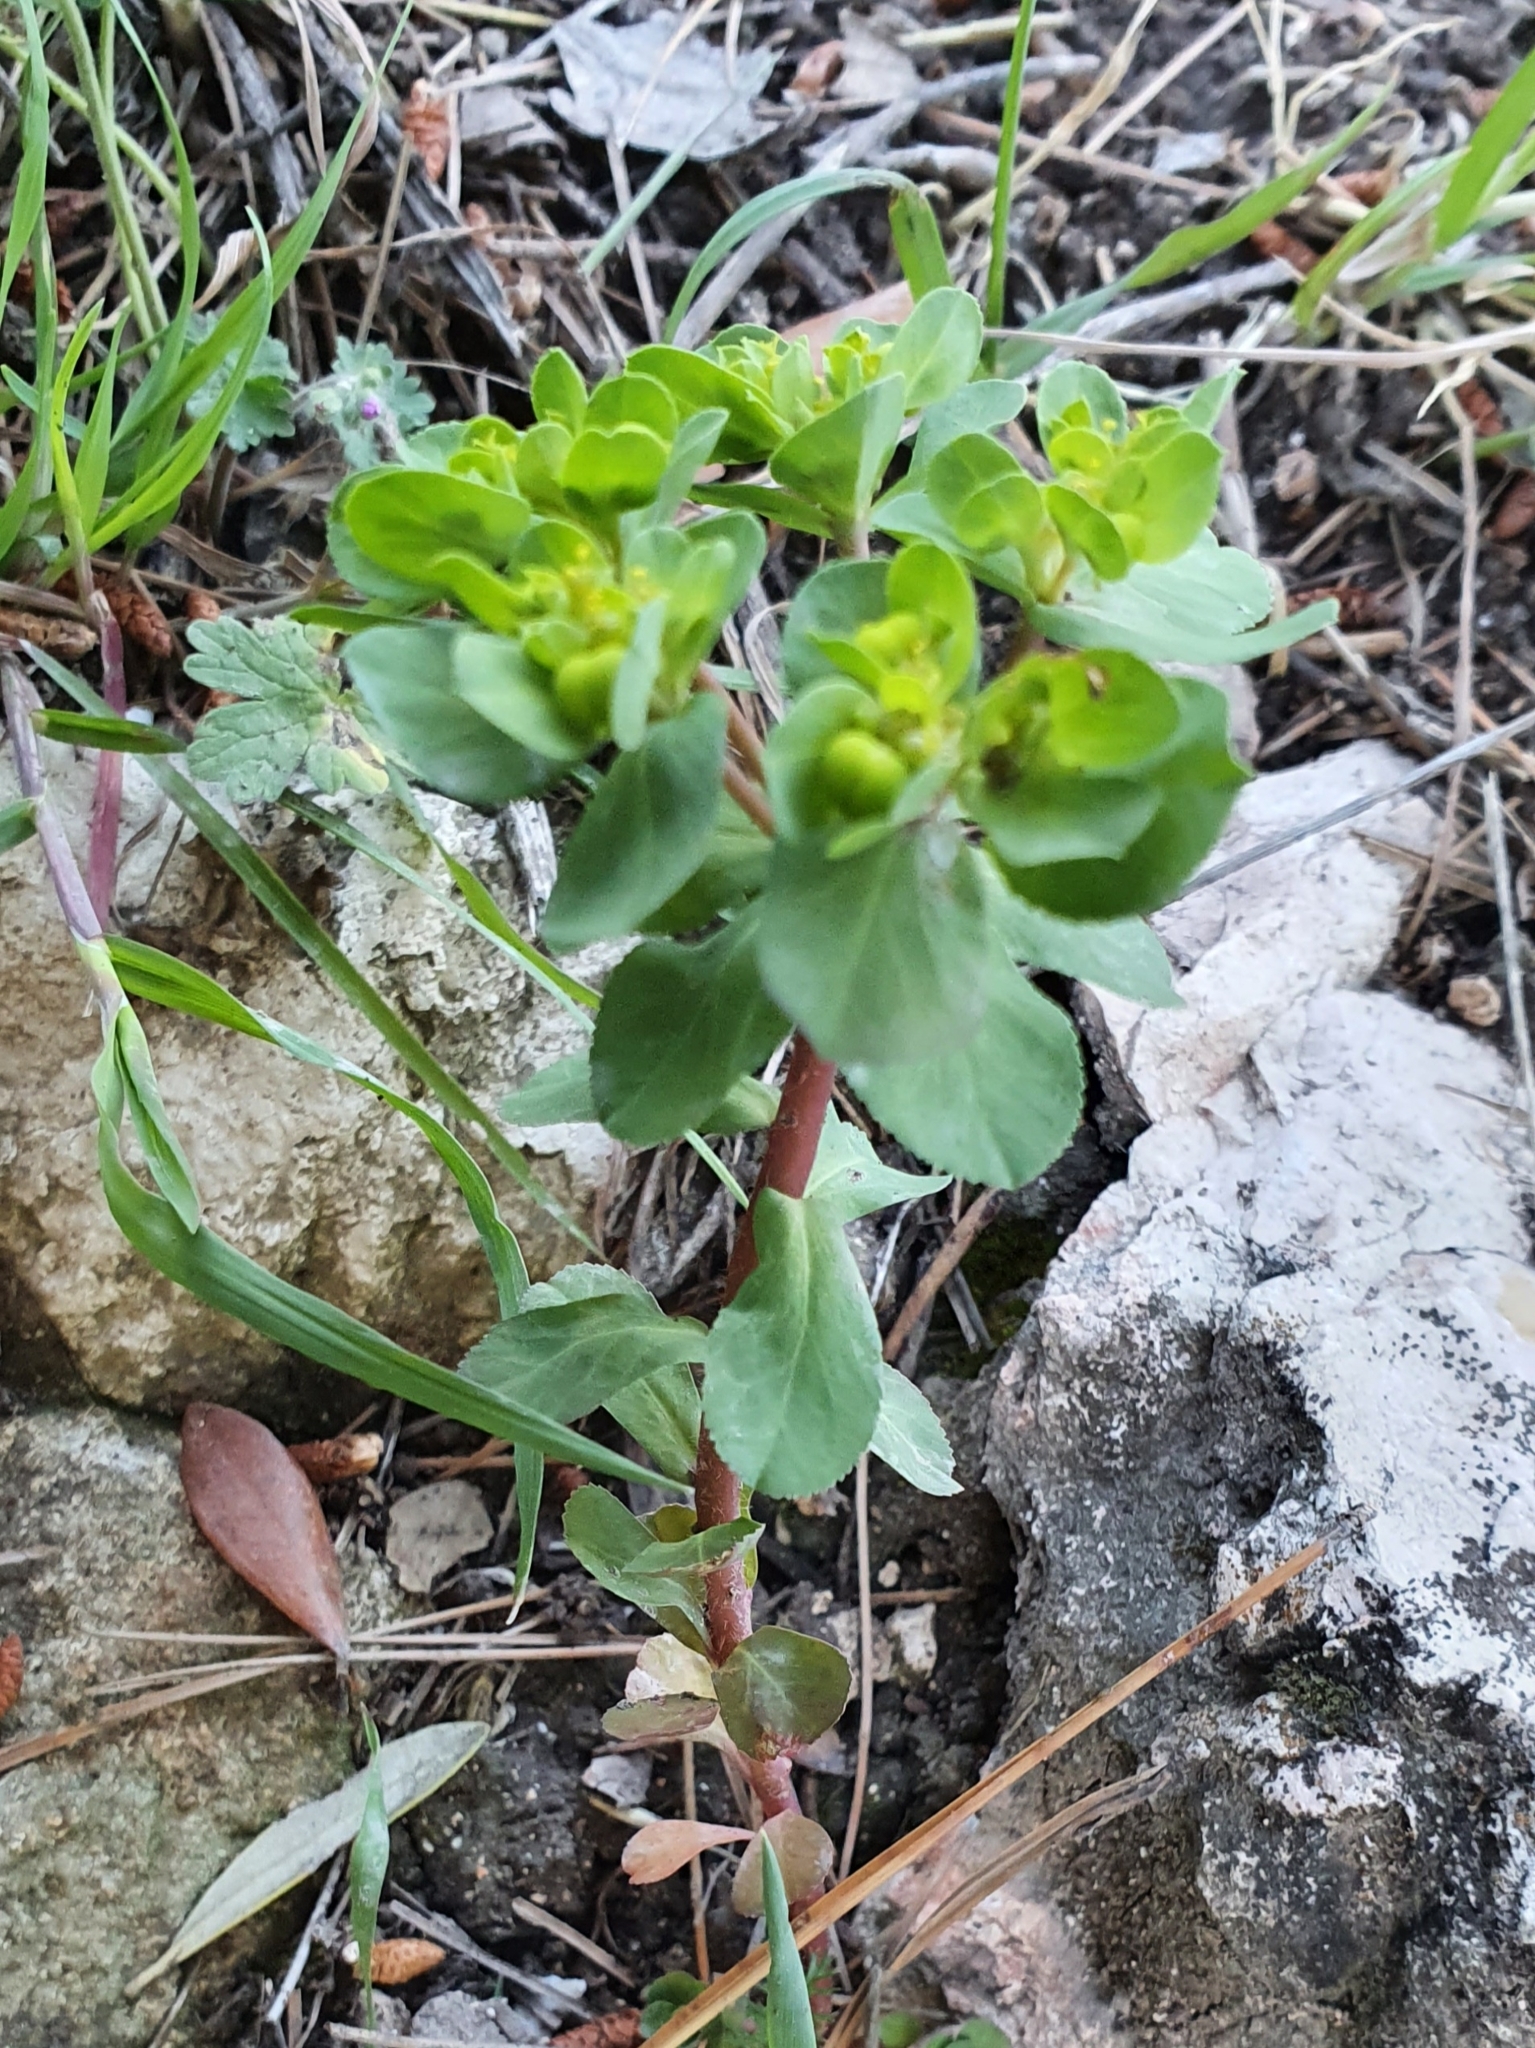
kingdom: Plantae
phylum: Tracheophyta
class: Magnoliopsida
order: Malpighiales
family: Euphorbiaceae
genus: Euphorbia
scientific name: Euphorbia helioscopia
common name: Sun spurge
